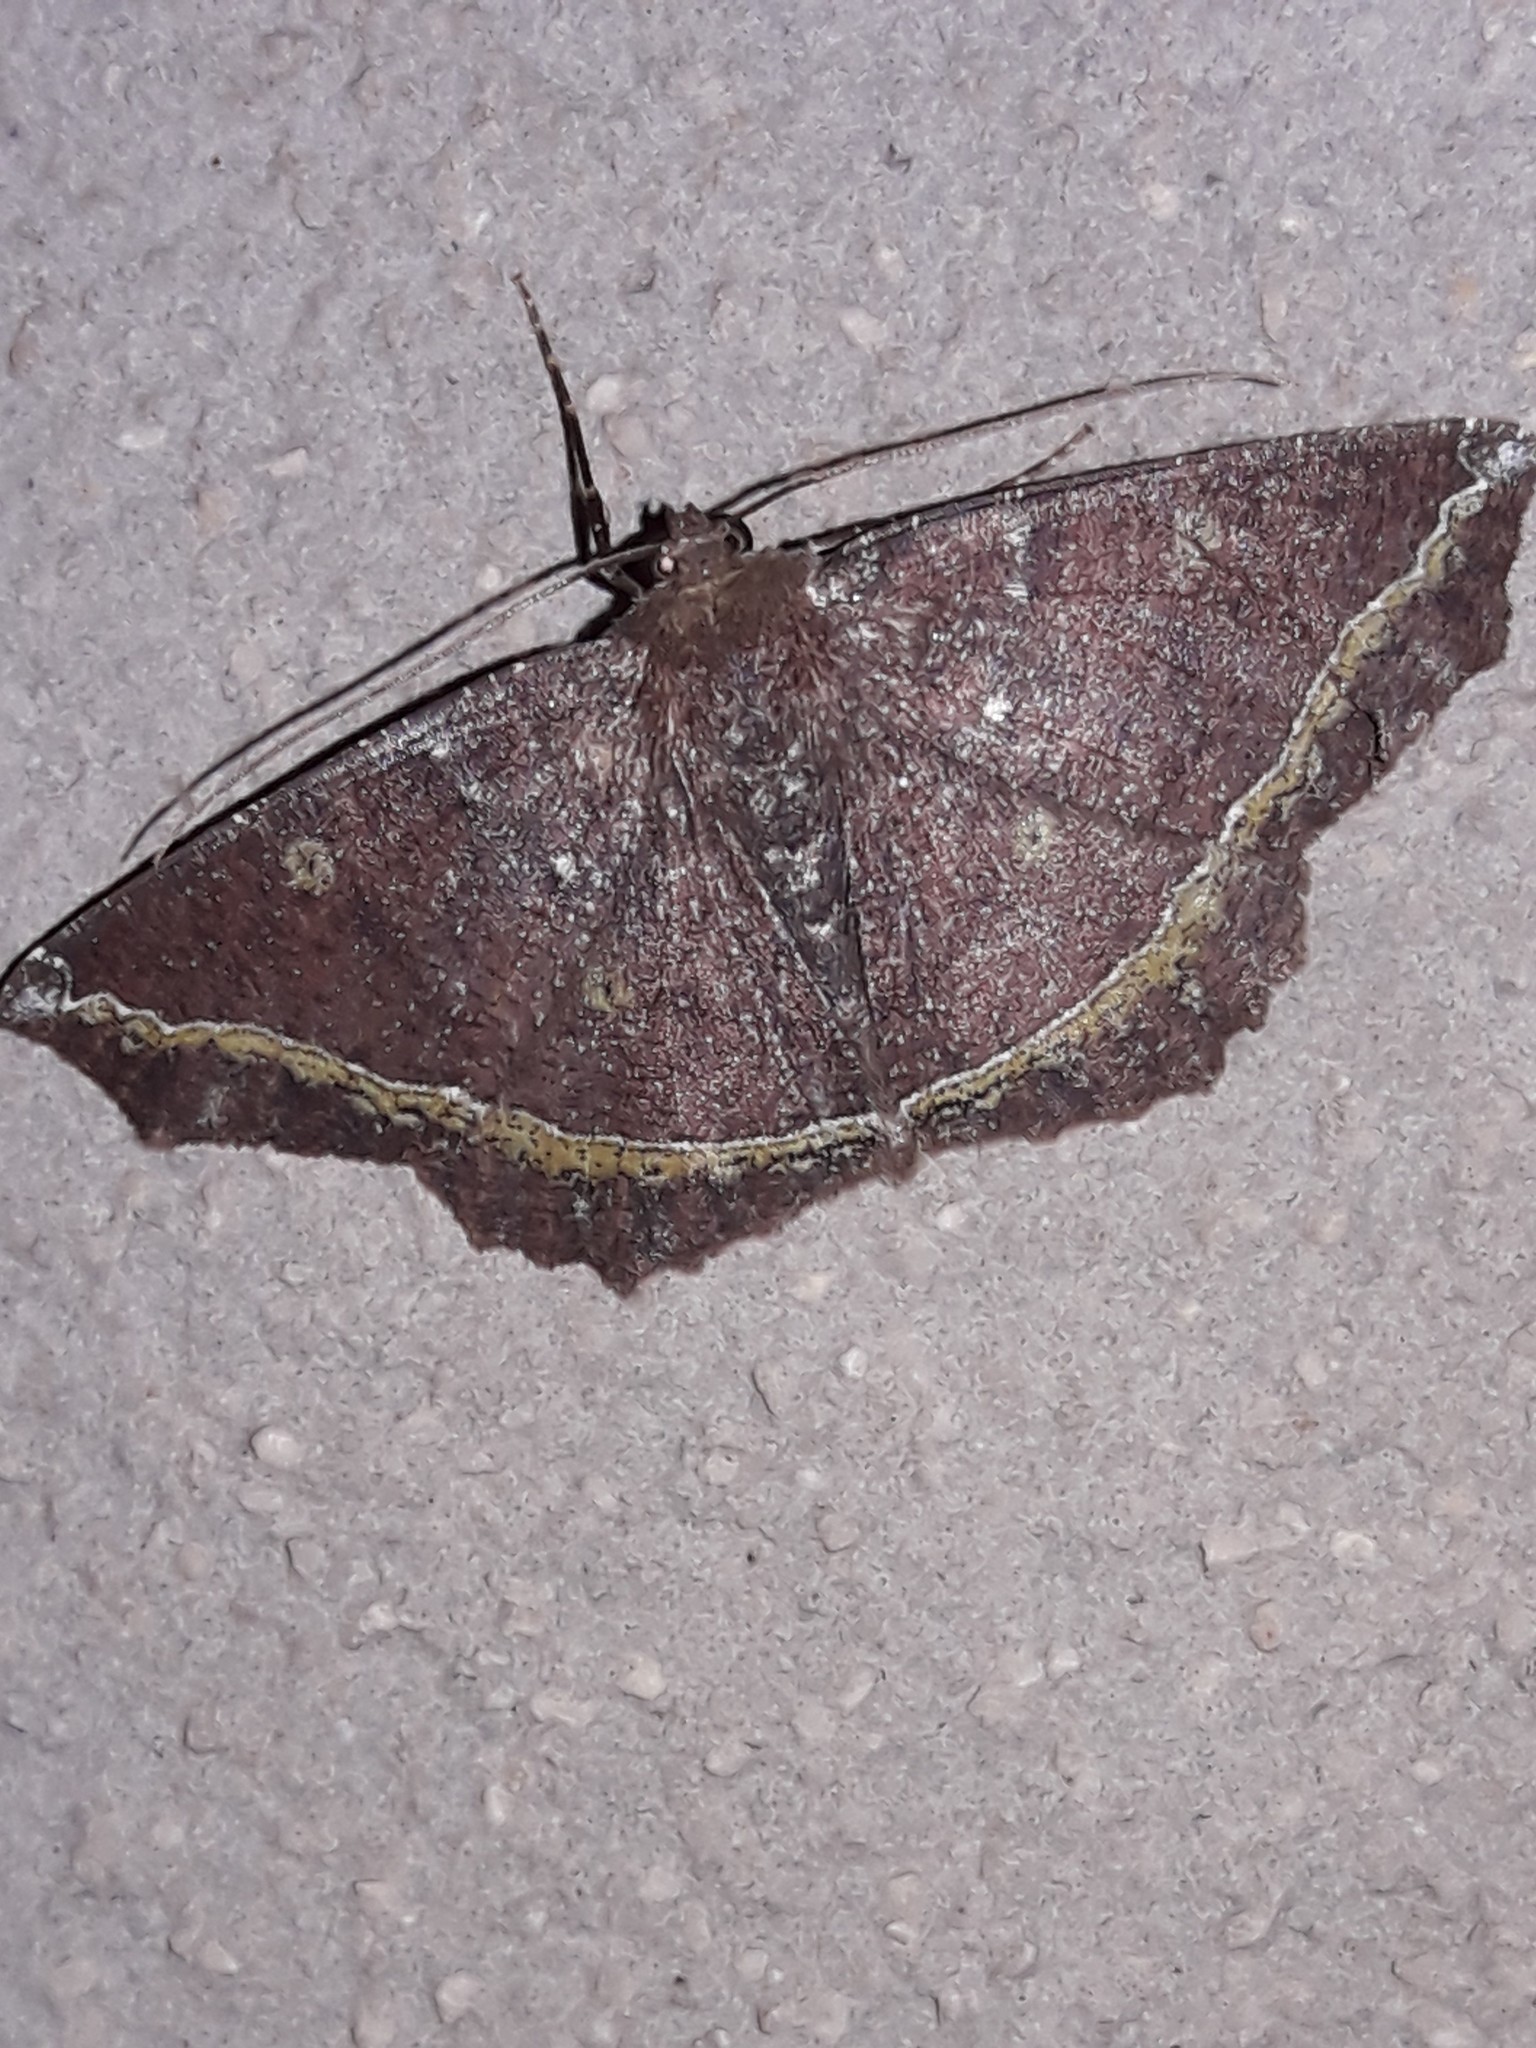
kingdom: Animalia
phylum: Arthropoda
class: Insecta
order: Lepidoptera
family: Geometridae
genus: Synnomos
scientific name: Synnomos firmamentaria
